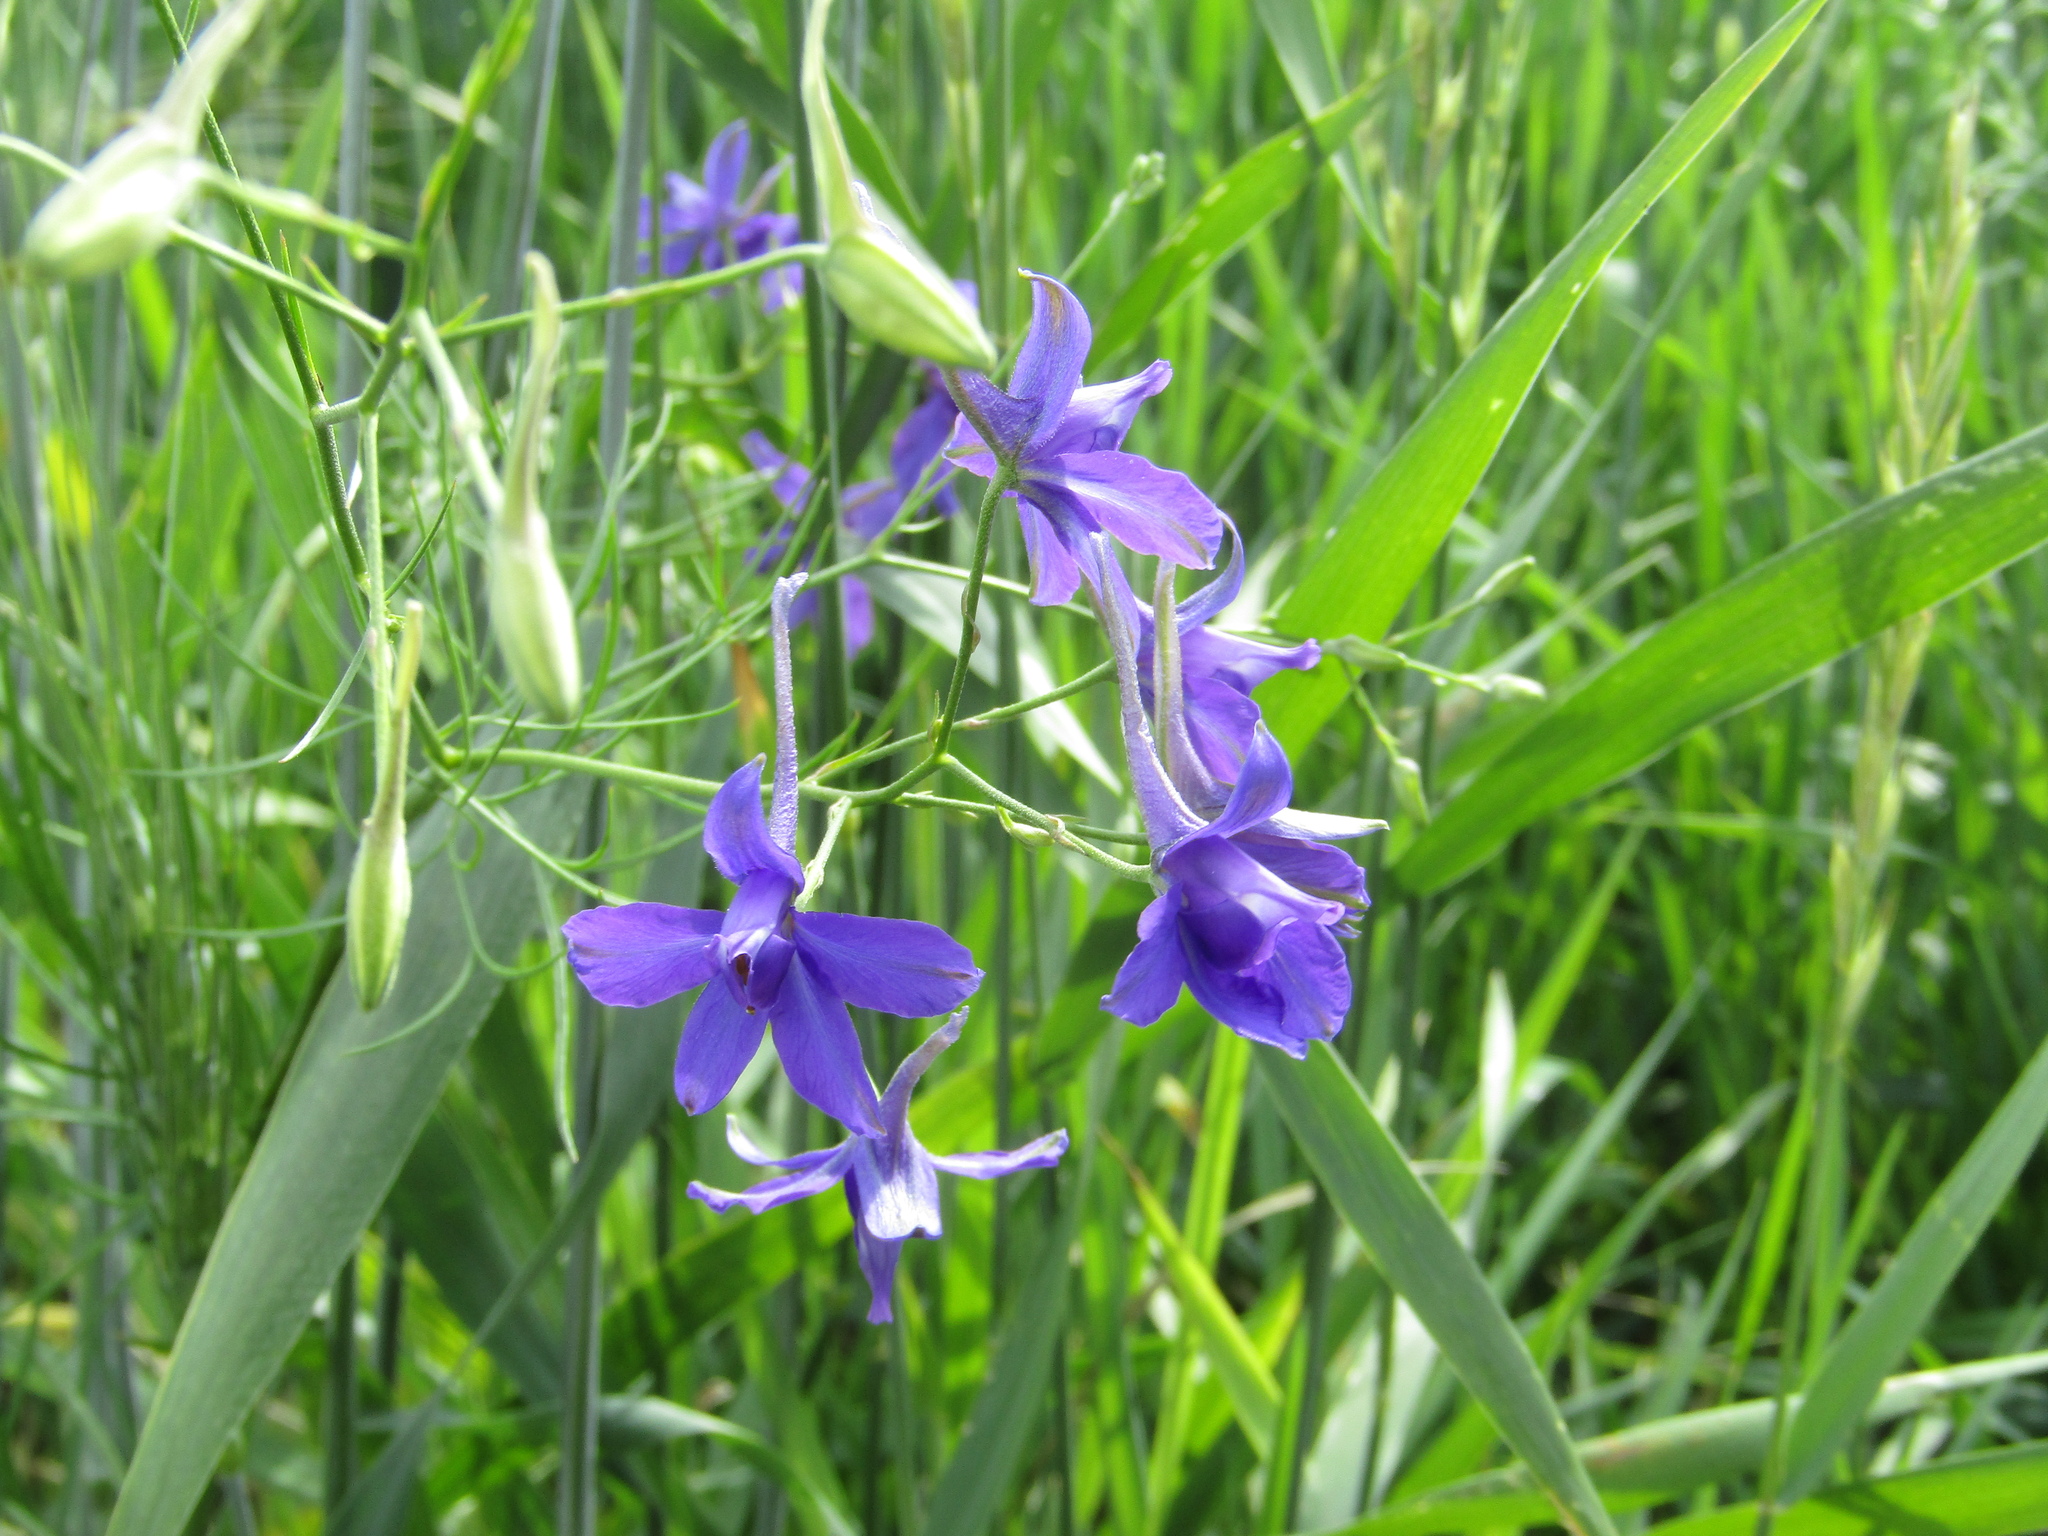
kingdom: Plantae
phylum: Tracheophyta
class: Magnoliopsida
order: Ranunculales
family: Ranunculaceae
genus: Delphinium
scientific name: Delphinium consolida
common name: Branching larkspur
